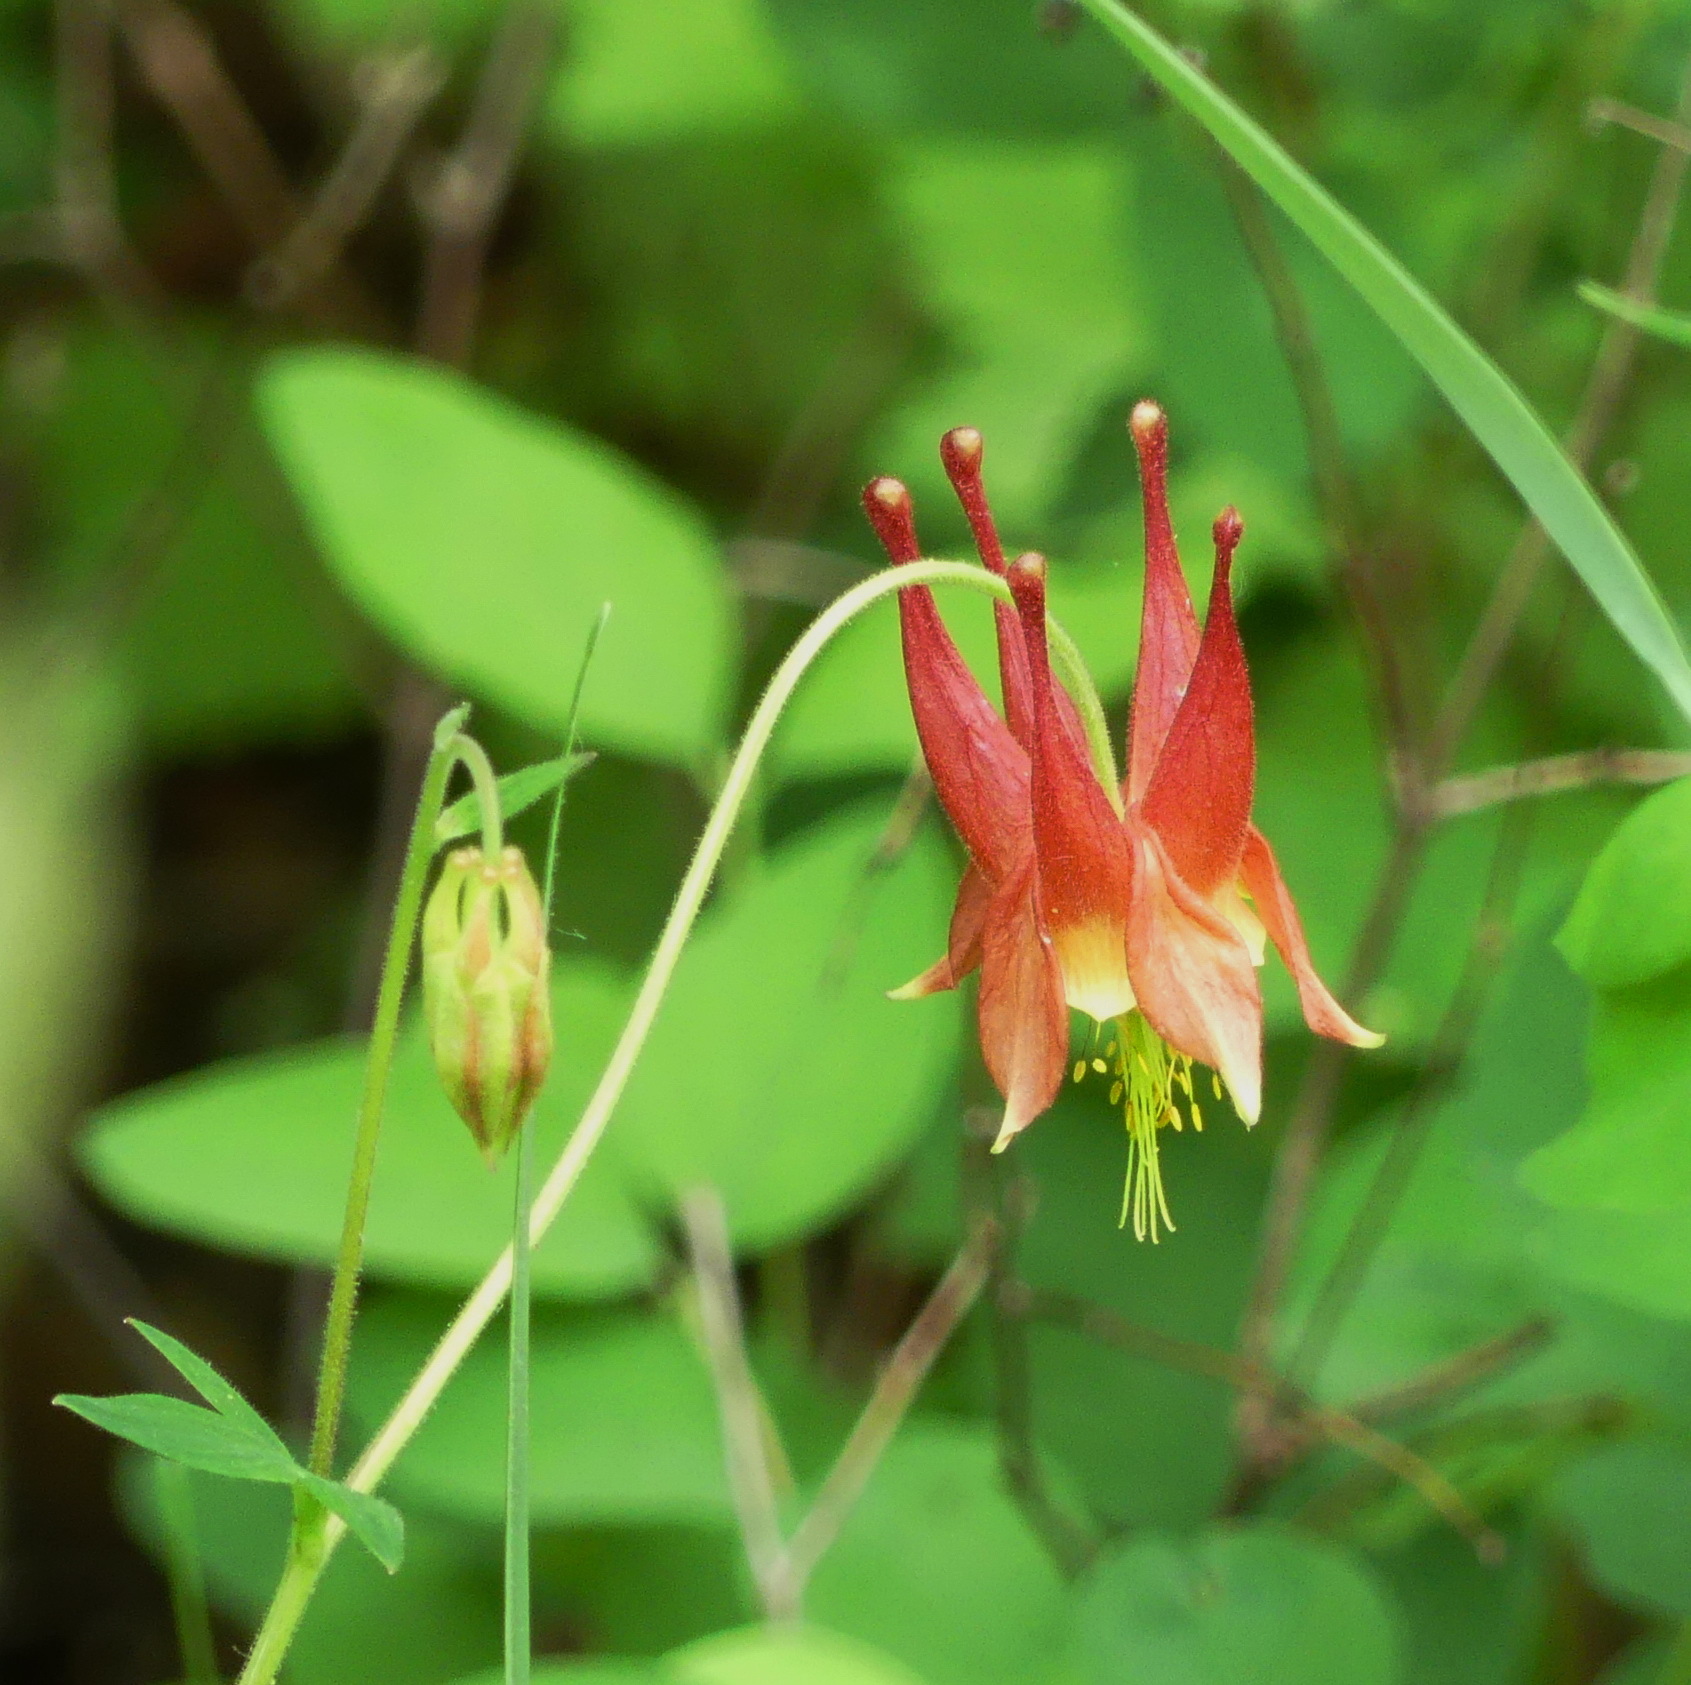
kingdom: Plantae
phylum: Tracheophyta
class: Magnoliopsida
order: Ranunculales
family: Ranunculaceae
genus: Aquilegia
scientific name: Aquilegia canadensis
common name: American columbine
